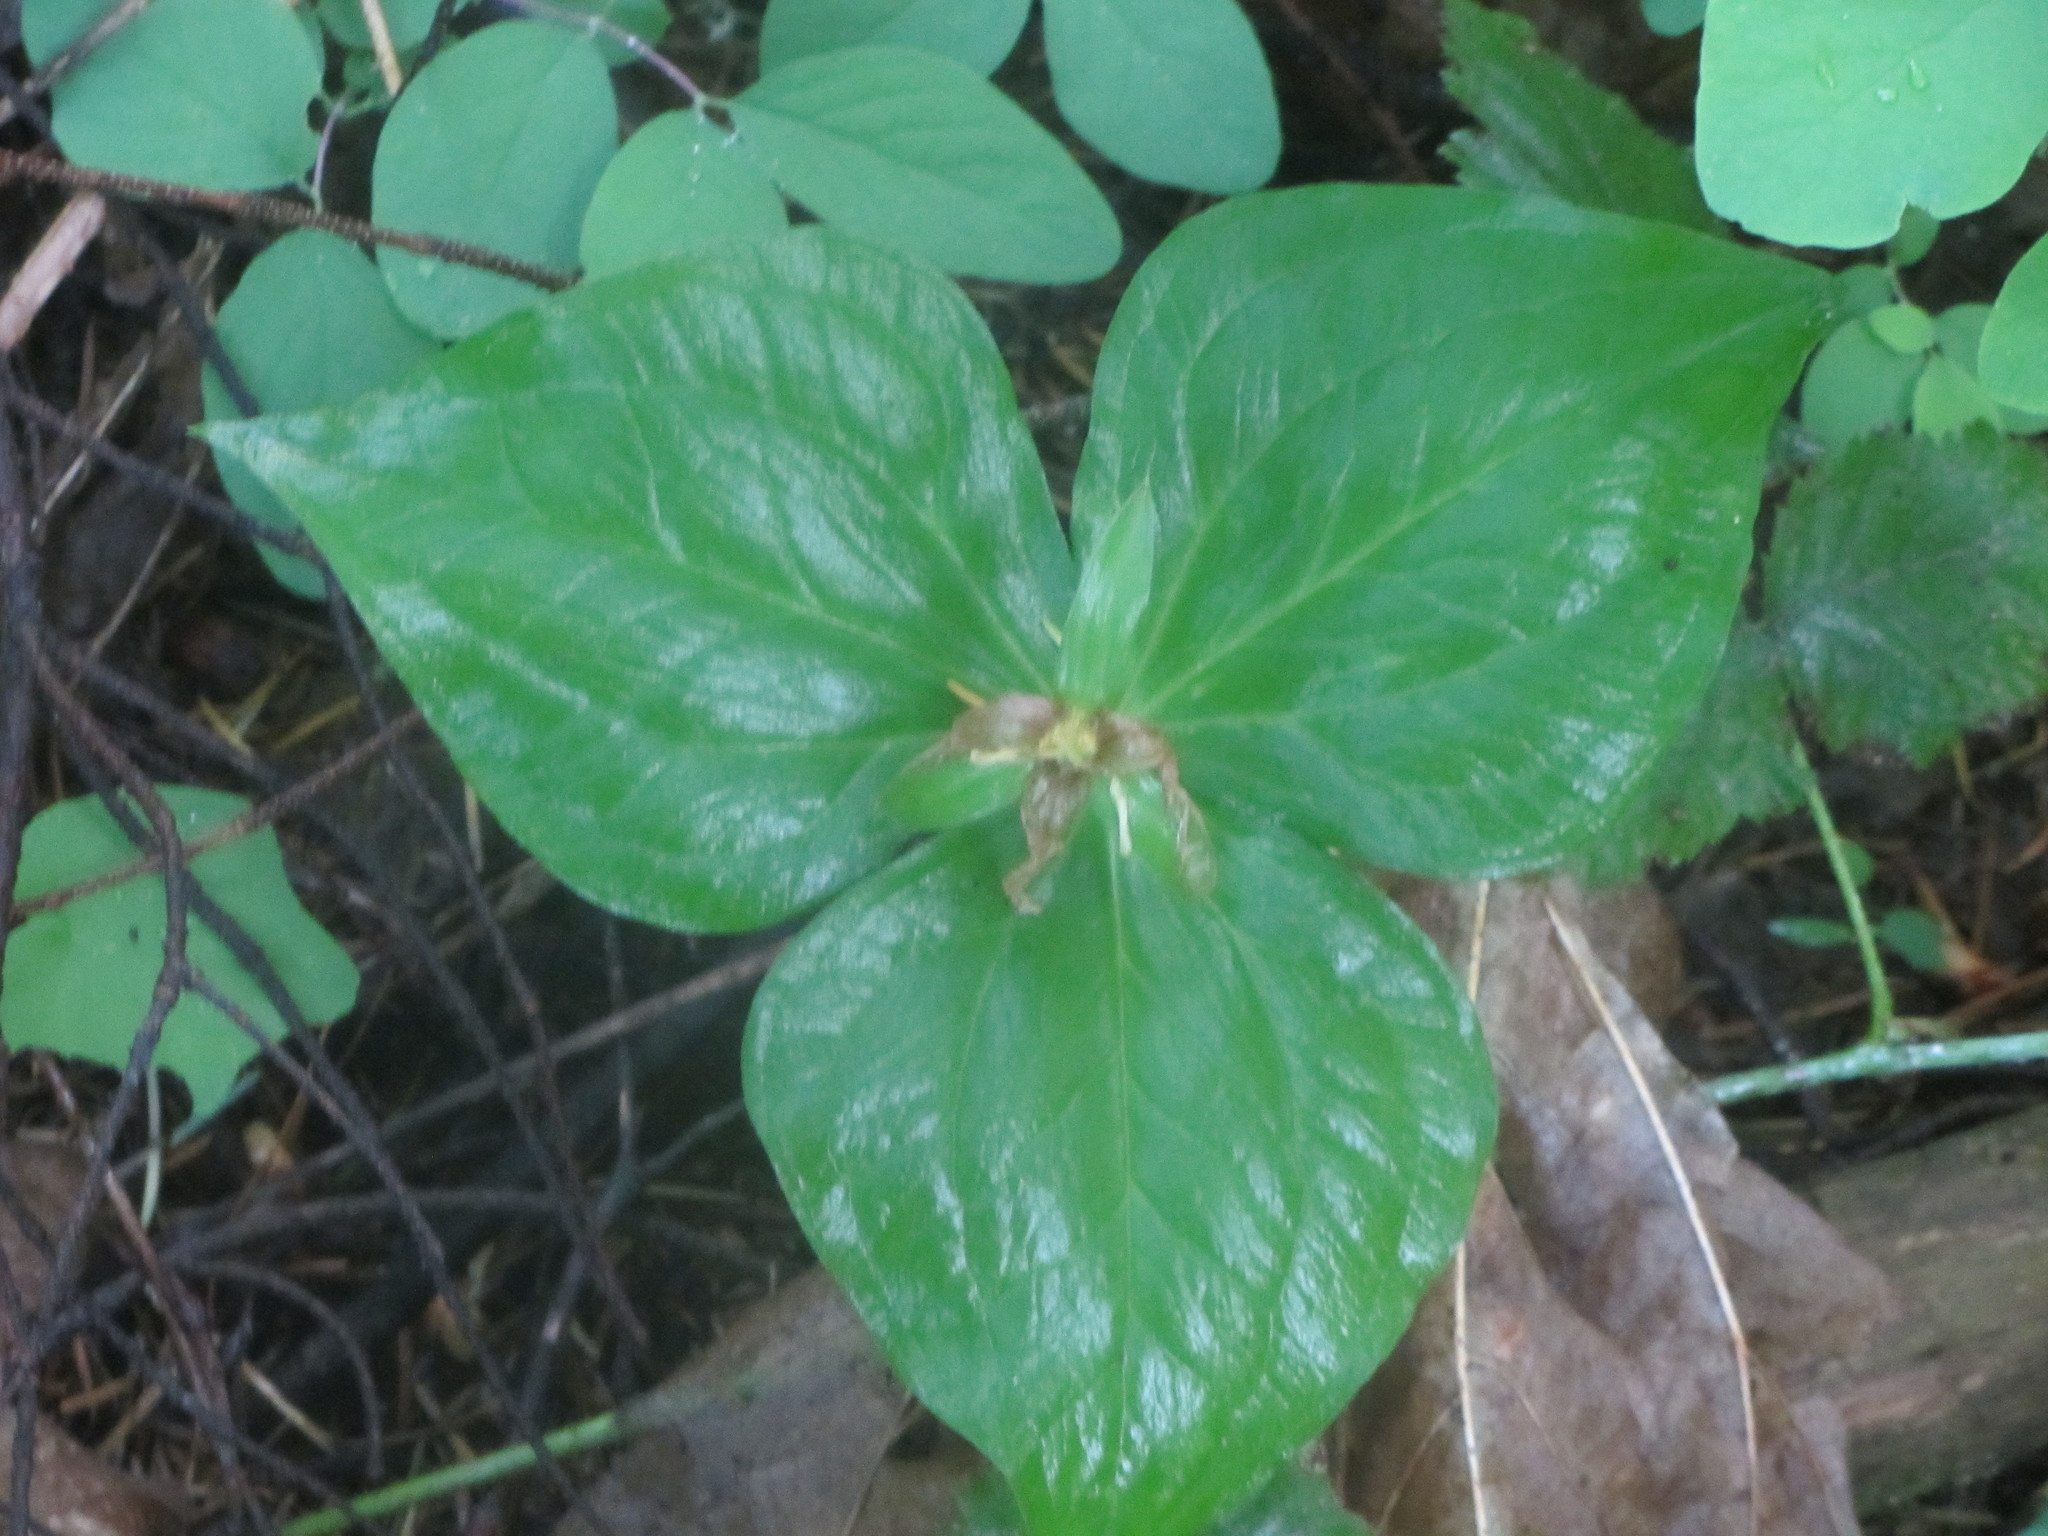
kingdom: Plantae
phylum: Tracheophyta
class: Liliopsida
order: Liliales
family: Melanthiaceae
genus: Trillium
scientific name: Trillium ovatum
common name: Pacific trillium
